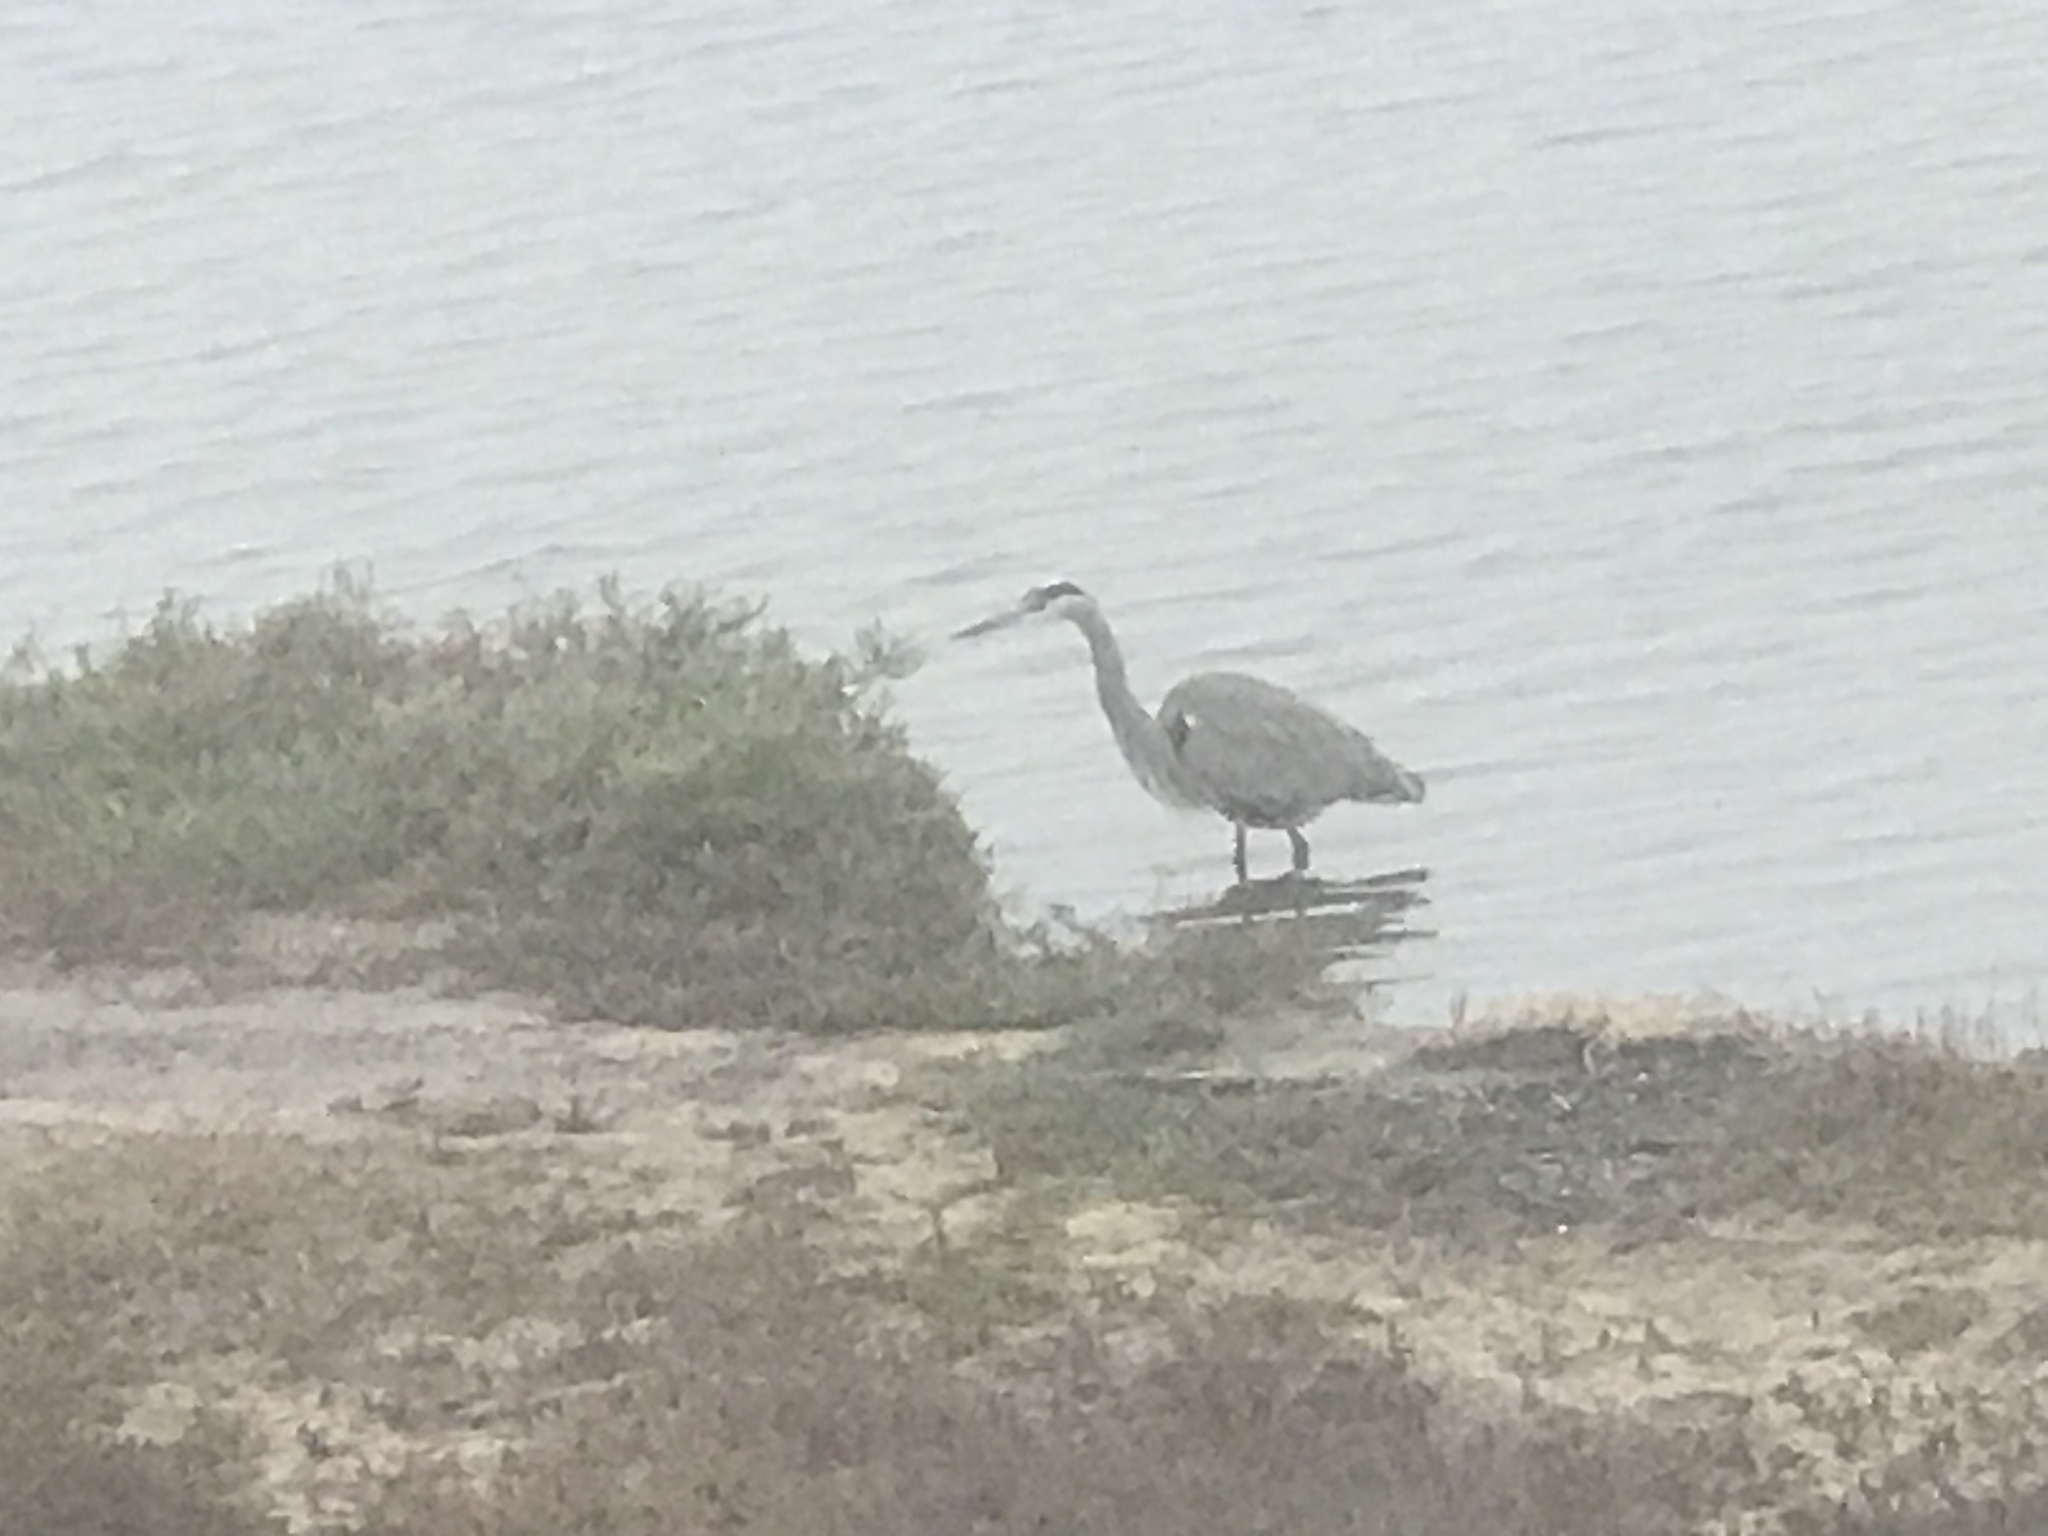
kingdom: Animalia
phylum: Chordata
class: Aves
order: Pelecaniformes
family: Ardeidae
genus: Ardea
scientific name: Ardea herodias
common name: Great blue heron
